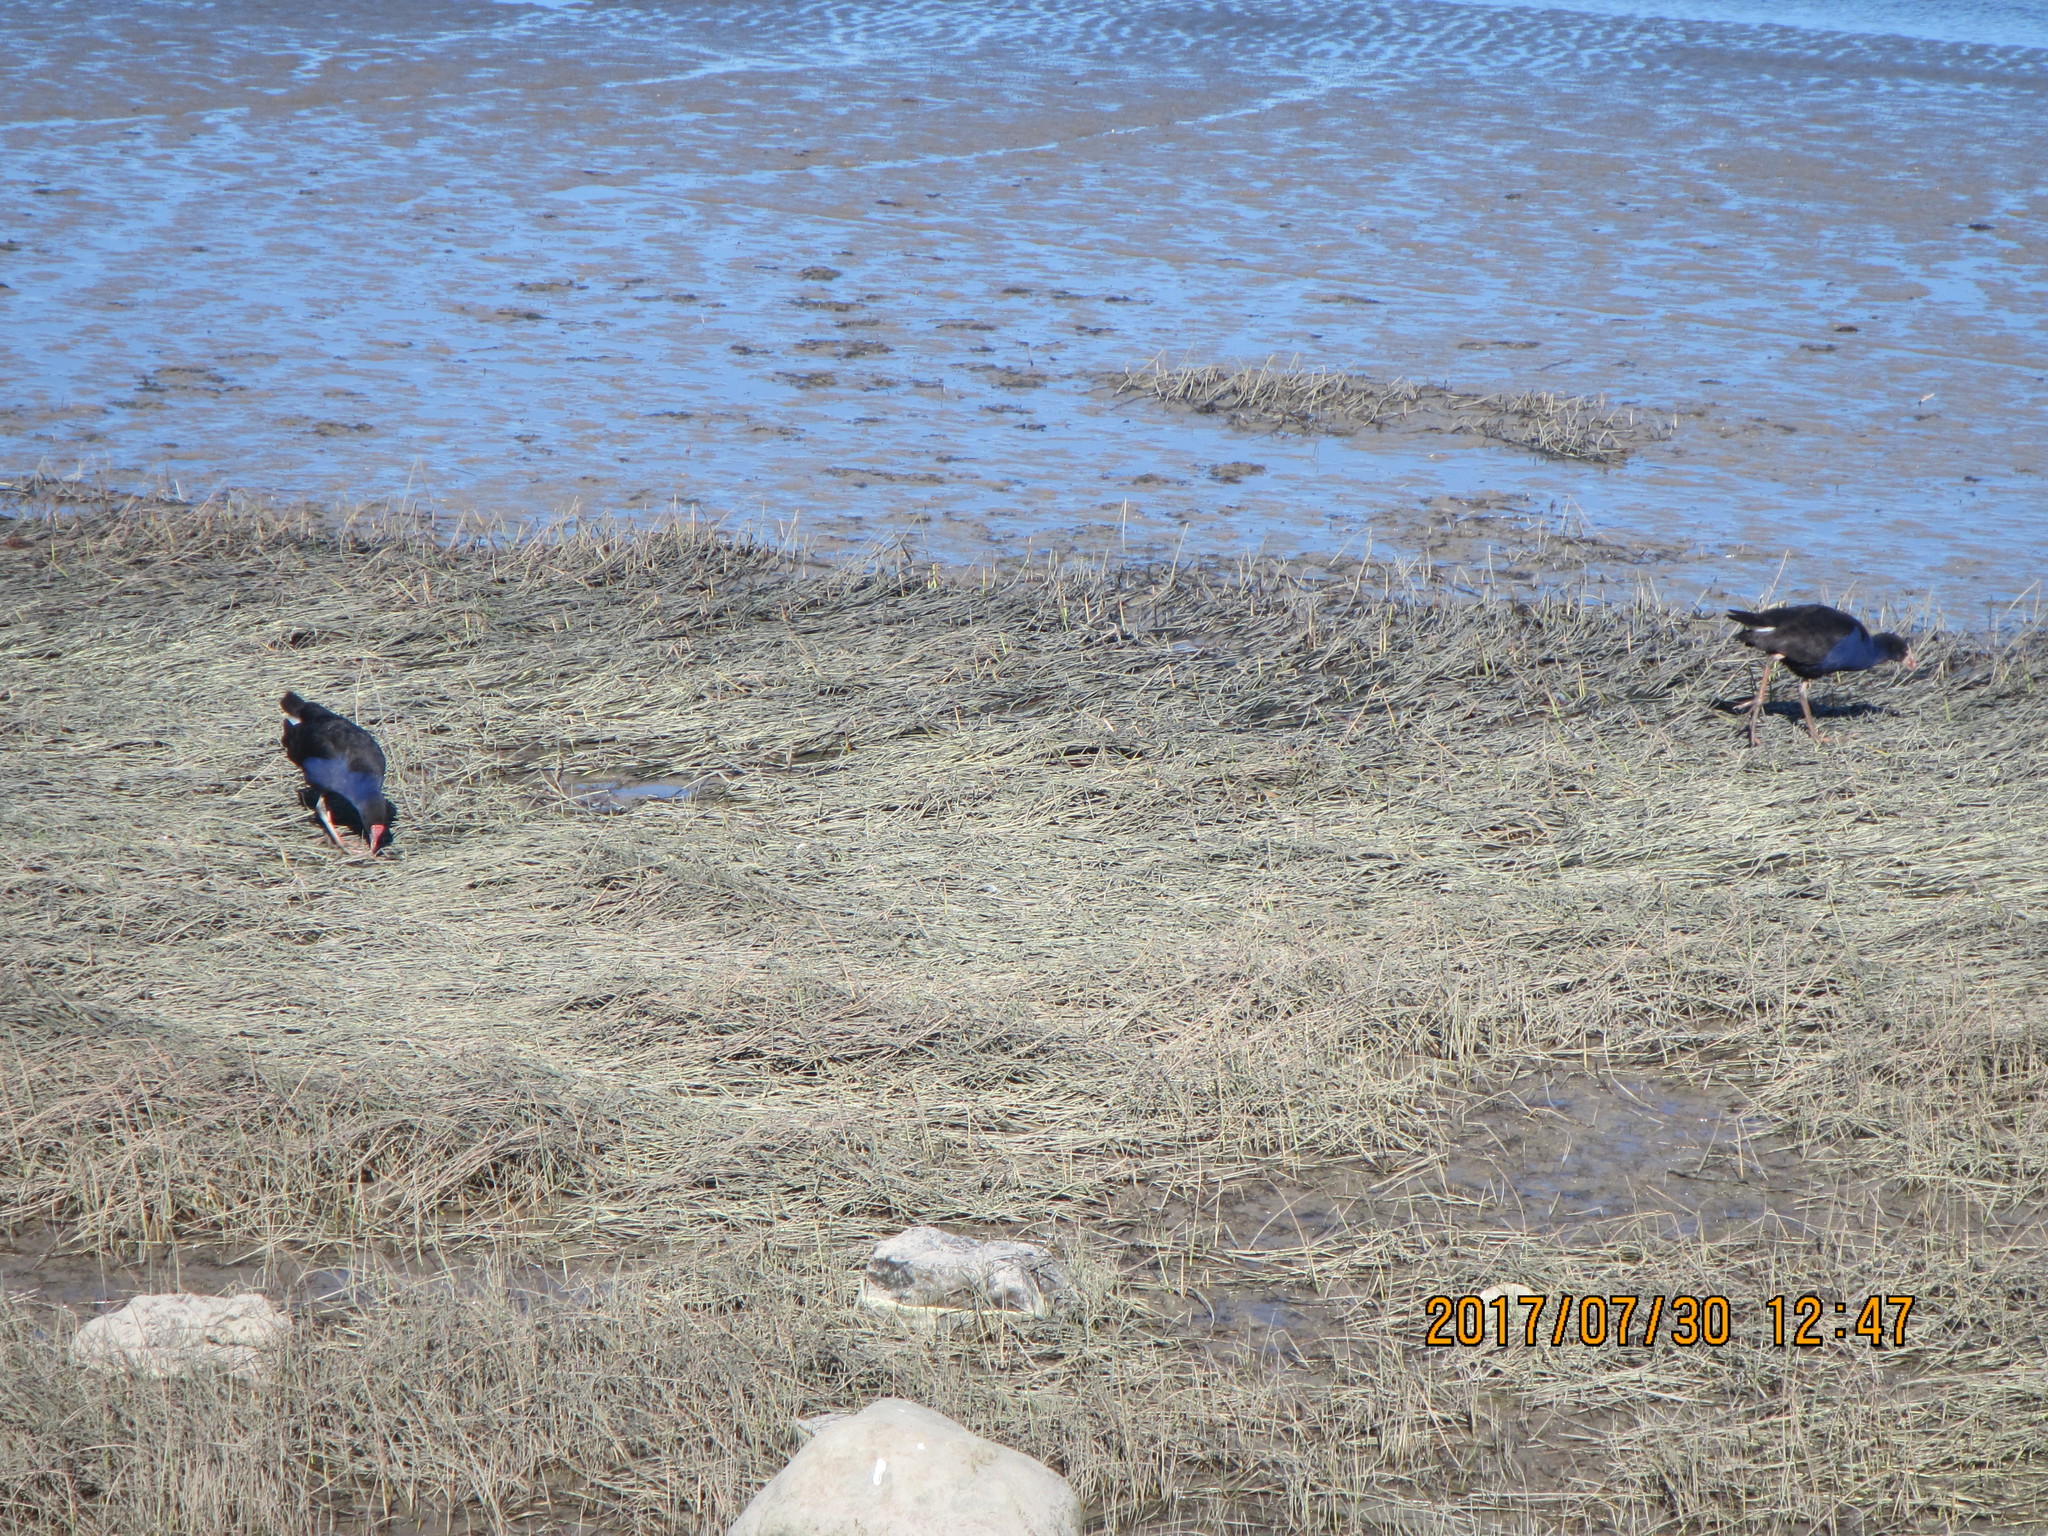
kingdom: Animalia
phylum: Chordata
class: Aves
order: Gruiformes
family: Rallidae
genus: Porphyrio
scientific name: Porphyrio melanotus
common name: Australasian swamphen
